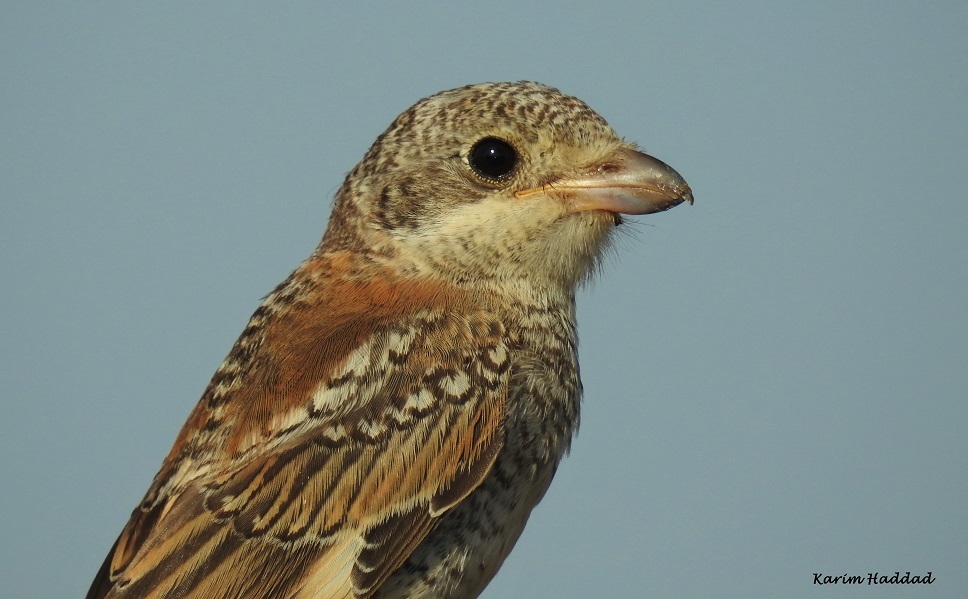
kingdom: Animalia
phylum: Chordata
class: Aves
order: Passeriformes
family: Laniidae
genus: Lanius
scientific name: Lanius senator
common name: Woodchat shrike
